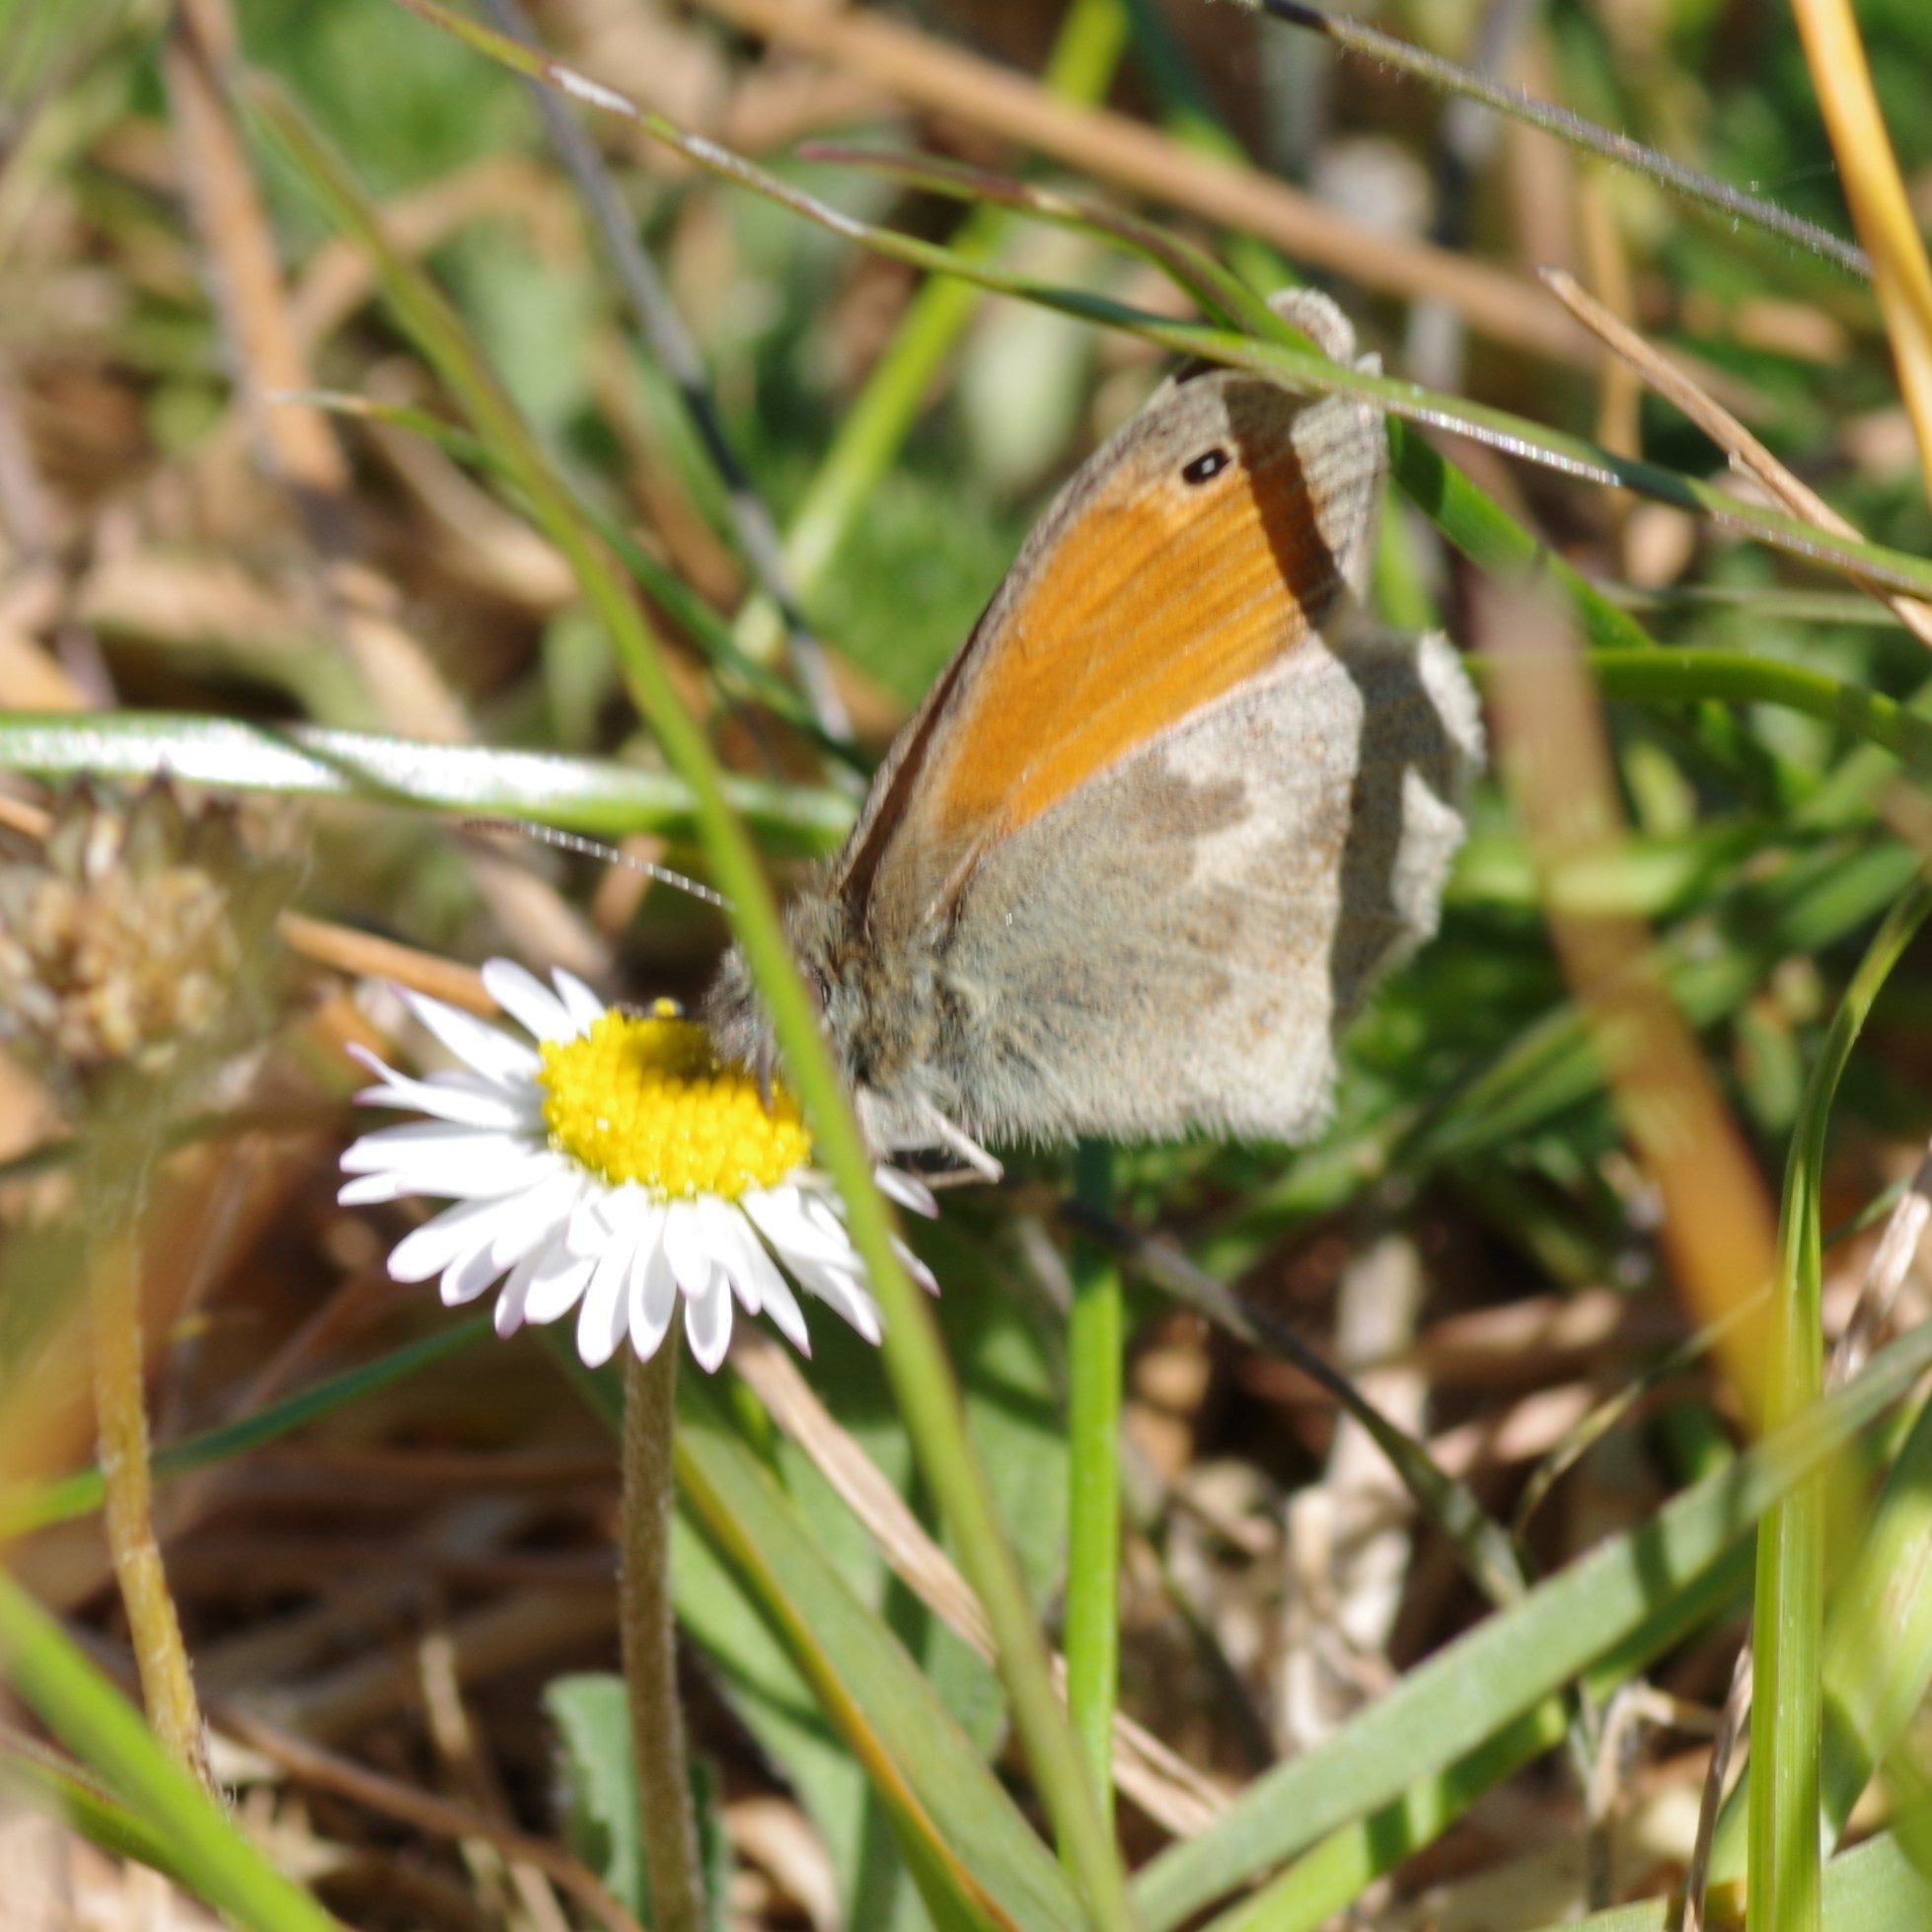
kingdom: Animalia
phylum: Arthropoda
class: Insecta
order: Lepidoptera
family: Nymphalidae
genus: Coenonympha
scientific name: Coenonympha pamphilus
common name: Small heath
